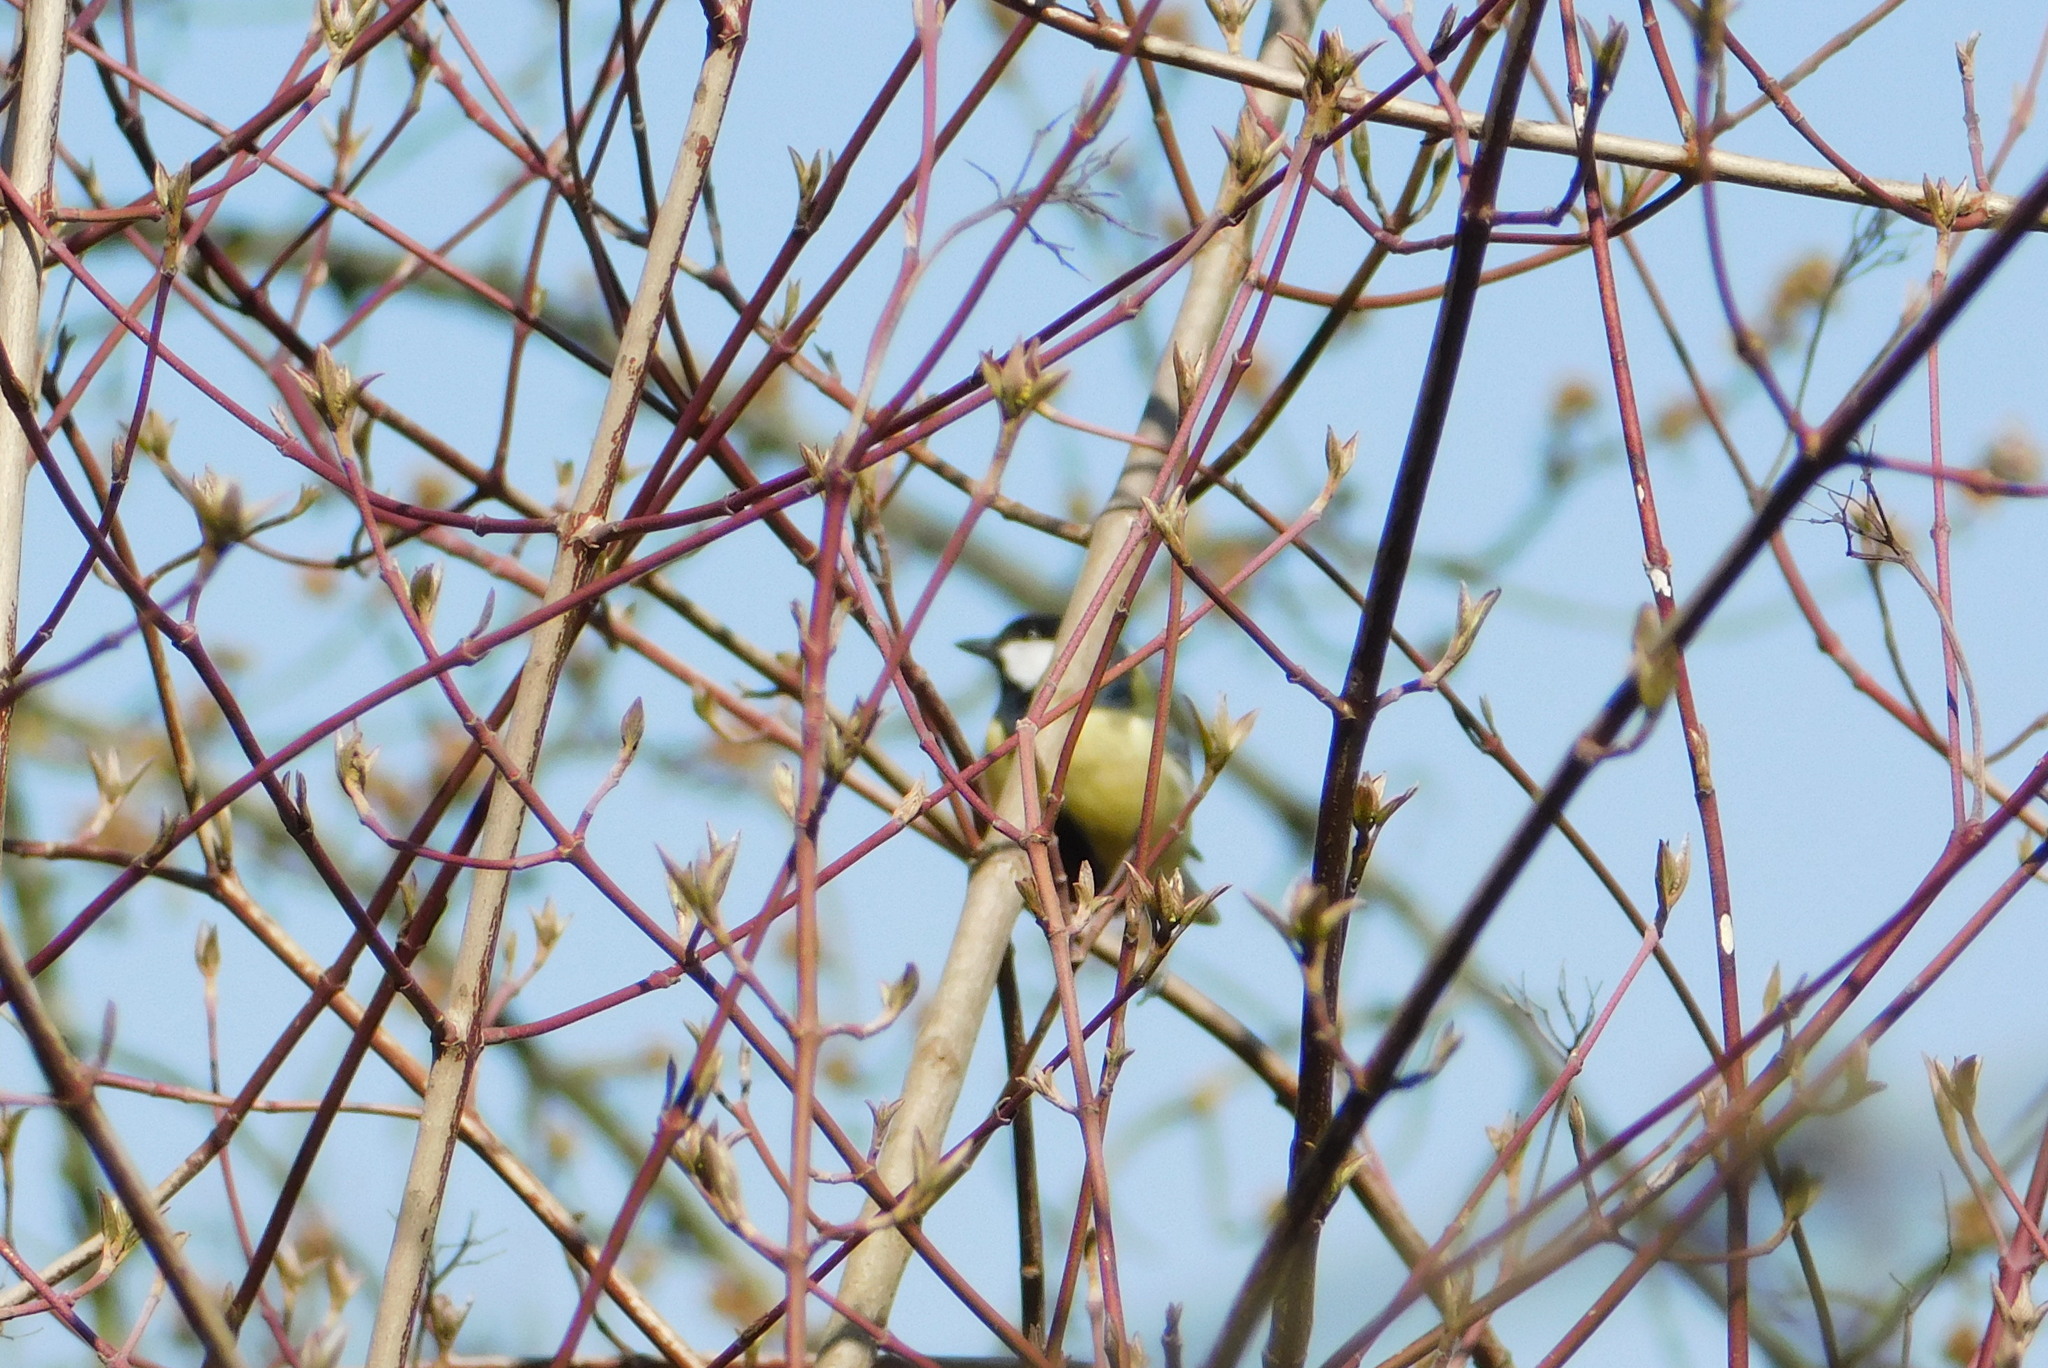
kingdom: Animalia
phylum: Chordata
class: Aves
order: Passeriformes
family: Paridae
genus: Parus
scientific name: Parus major
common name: Great tit
